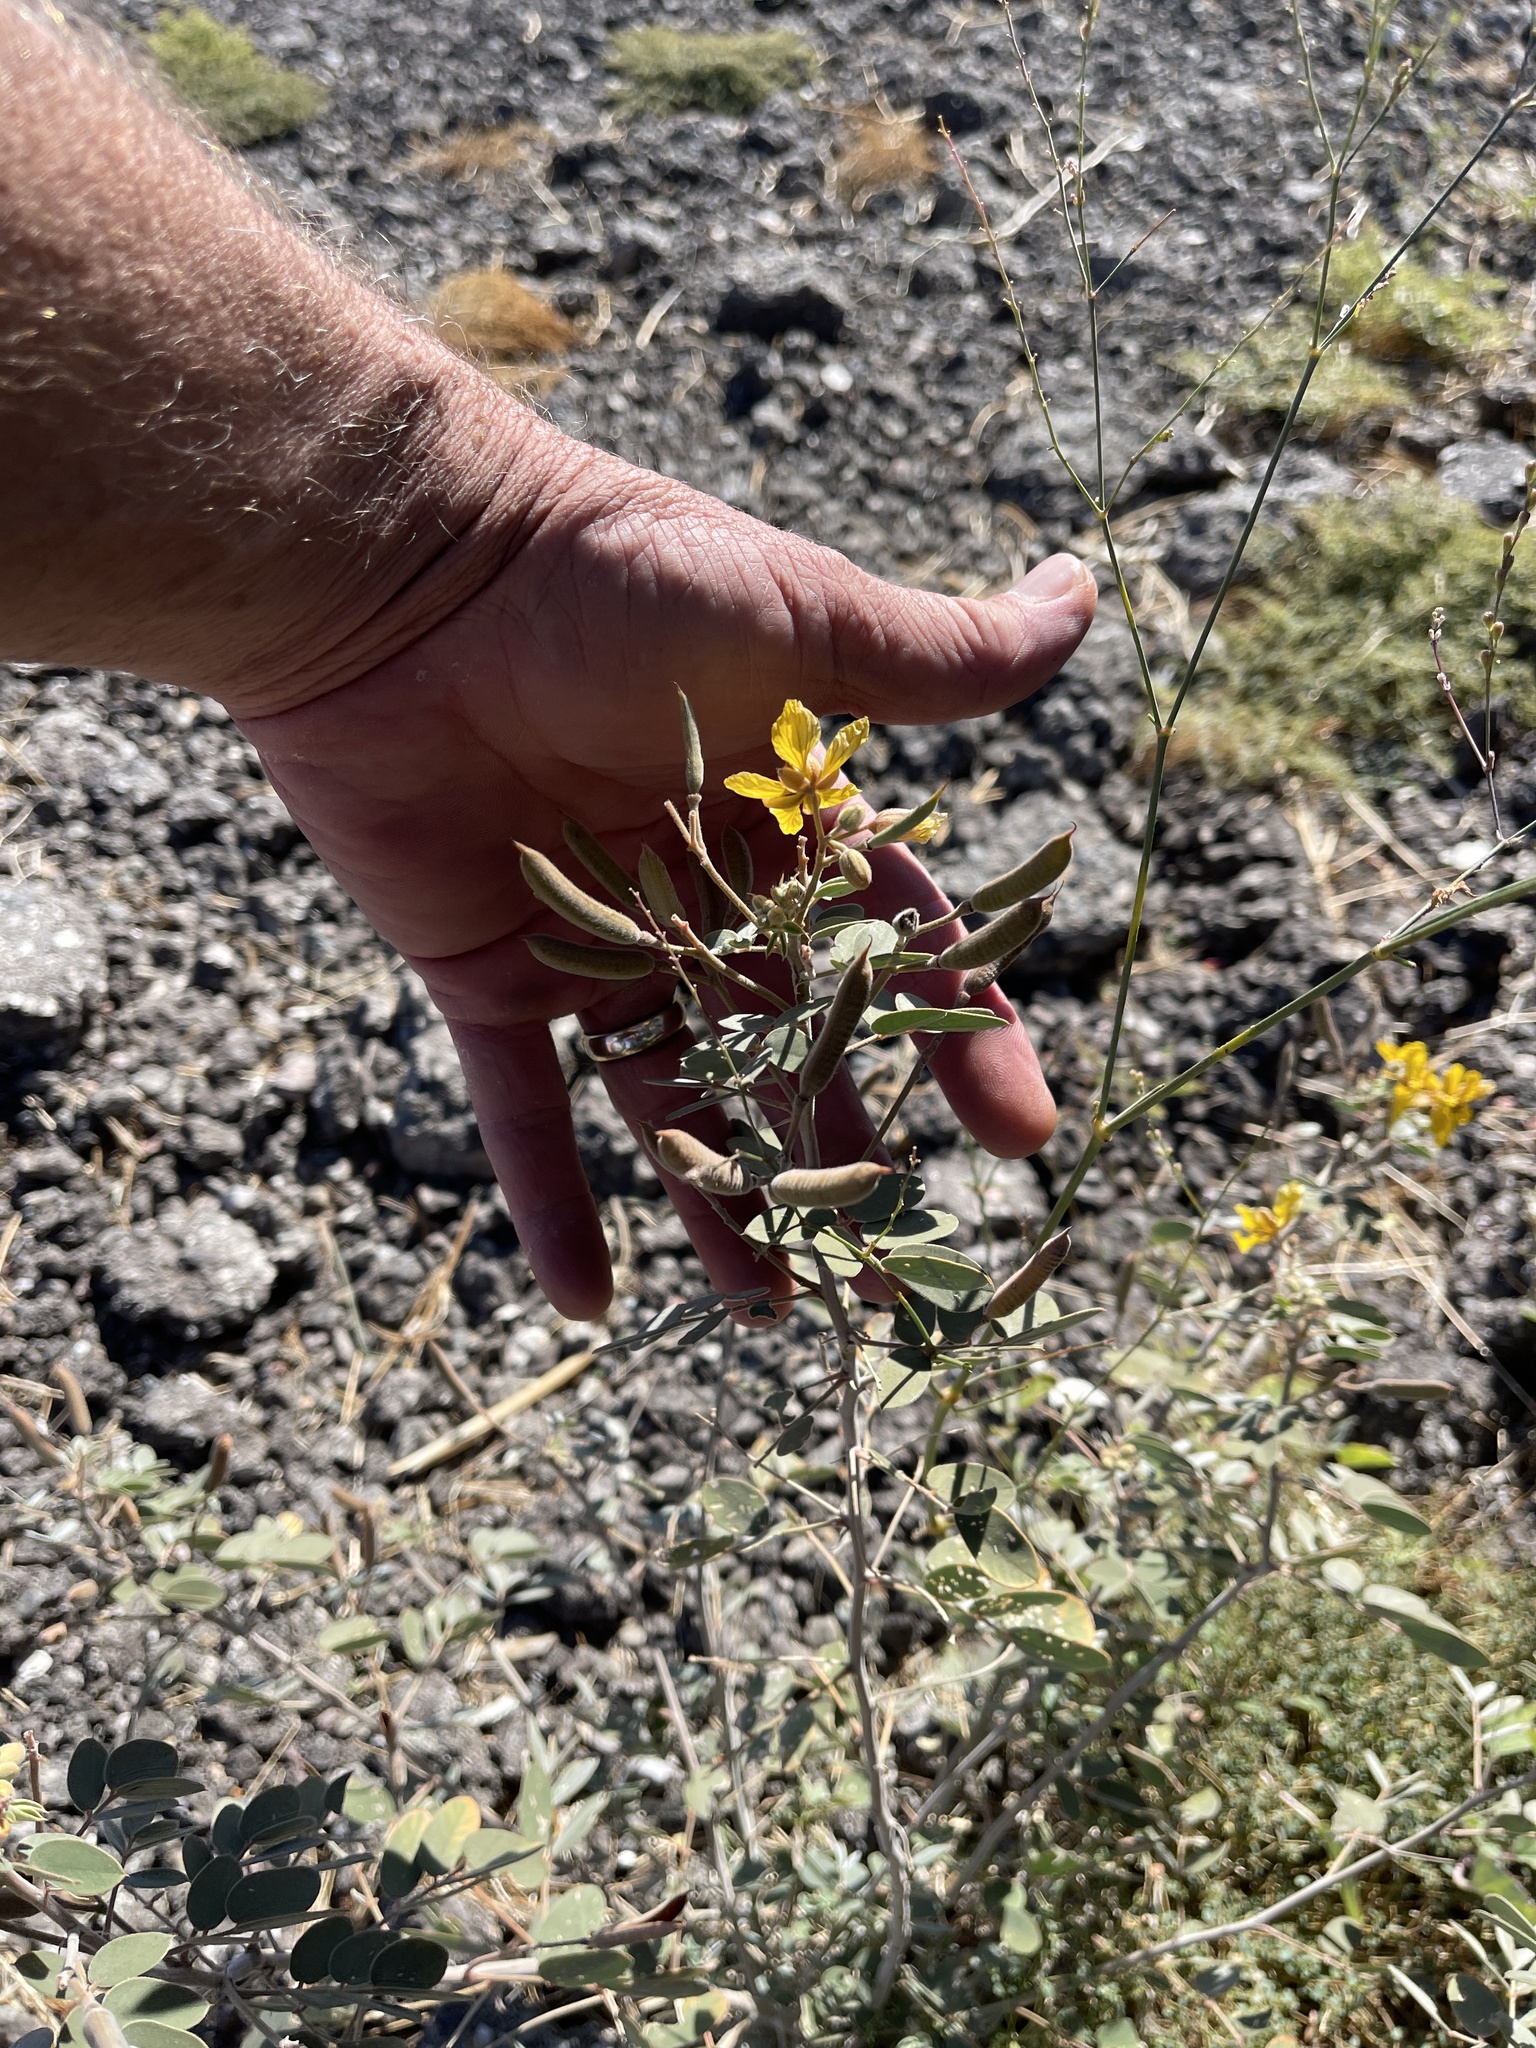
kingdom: Plantae
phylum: Tracheophyta
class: Magnoliopsida
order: Fabales
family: Fabaceae
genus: Senna
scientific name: Senna covesii
